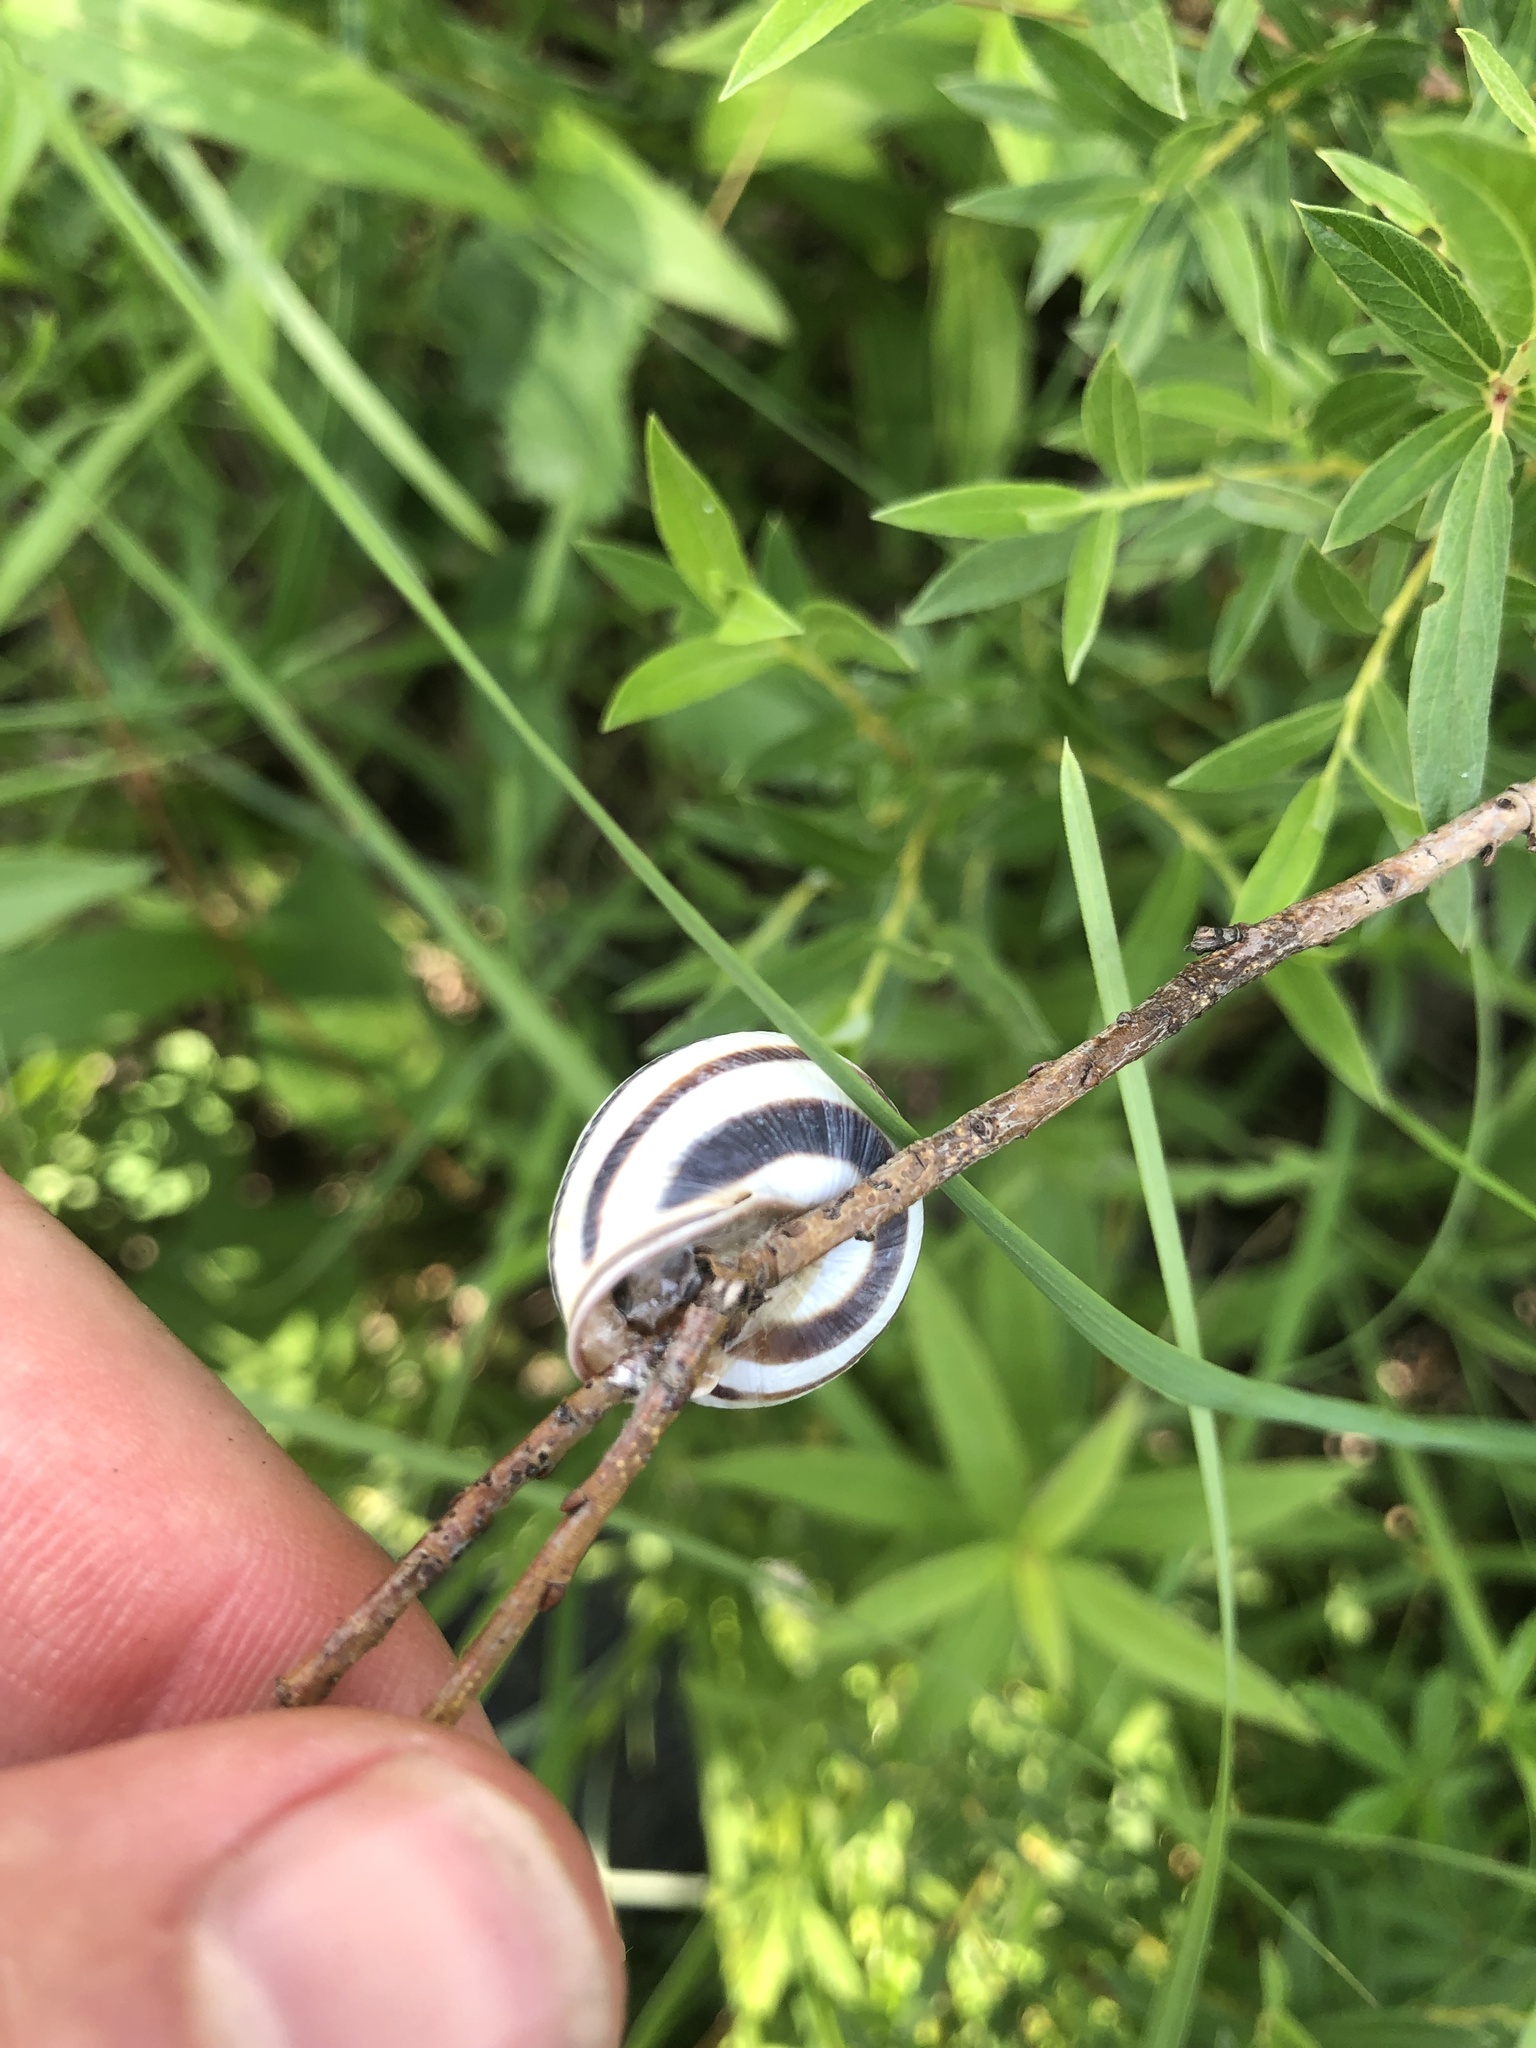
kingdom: Animalia
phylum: Mollusca
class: Gastropoda
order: Stylommatophora
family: Helicidae
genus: Caucasotachea
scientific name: Caucasotachea vindobonensis
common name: European helicid land snail
